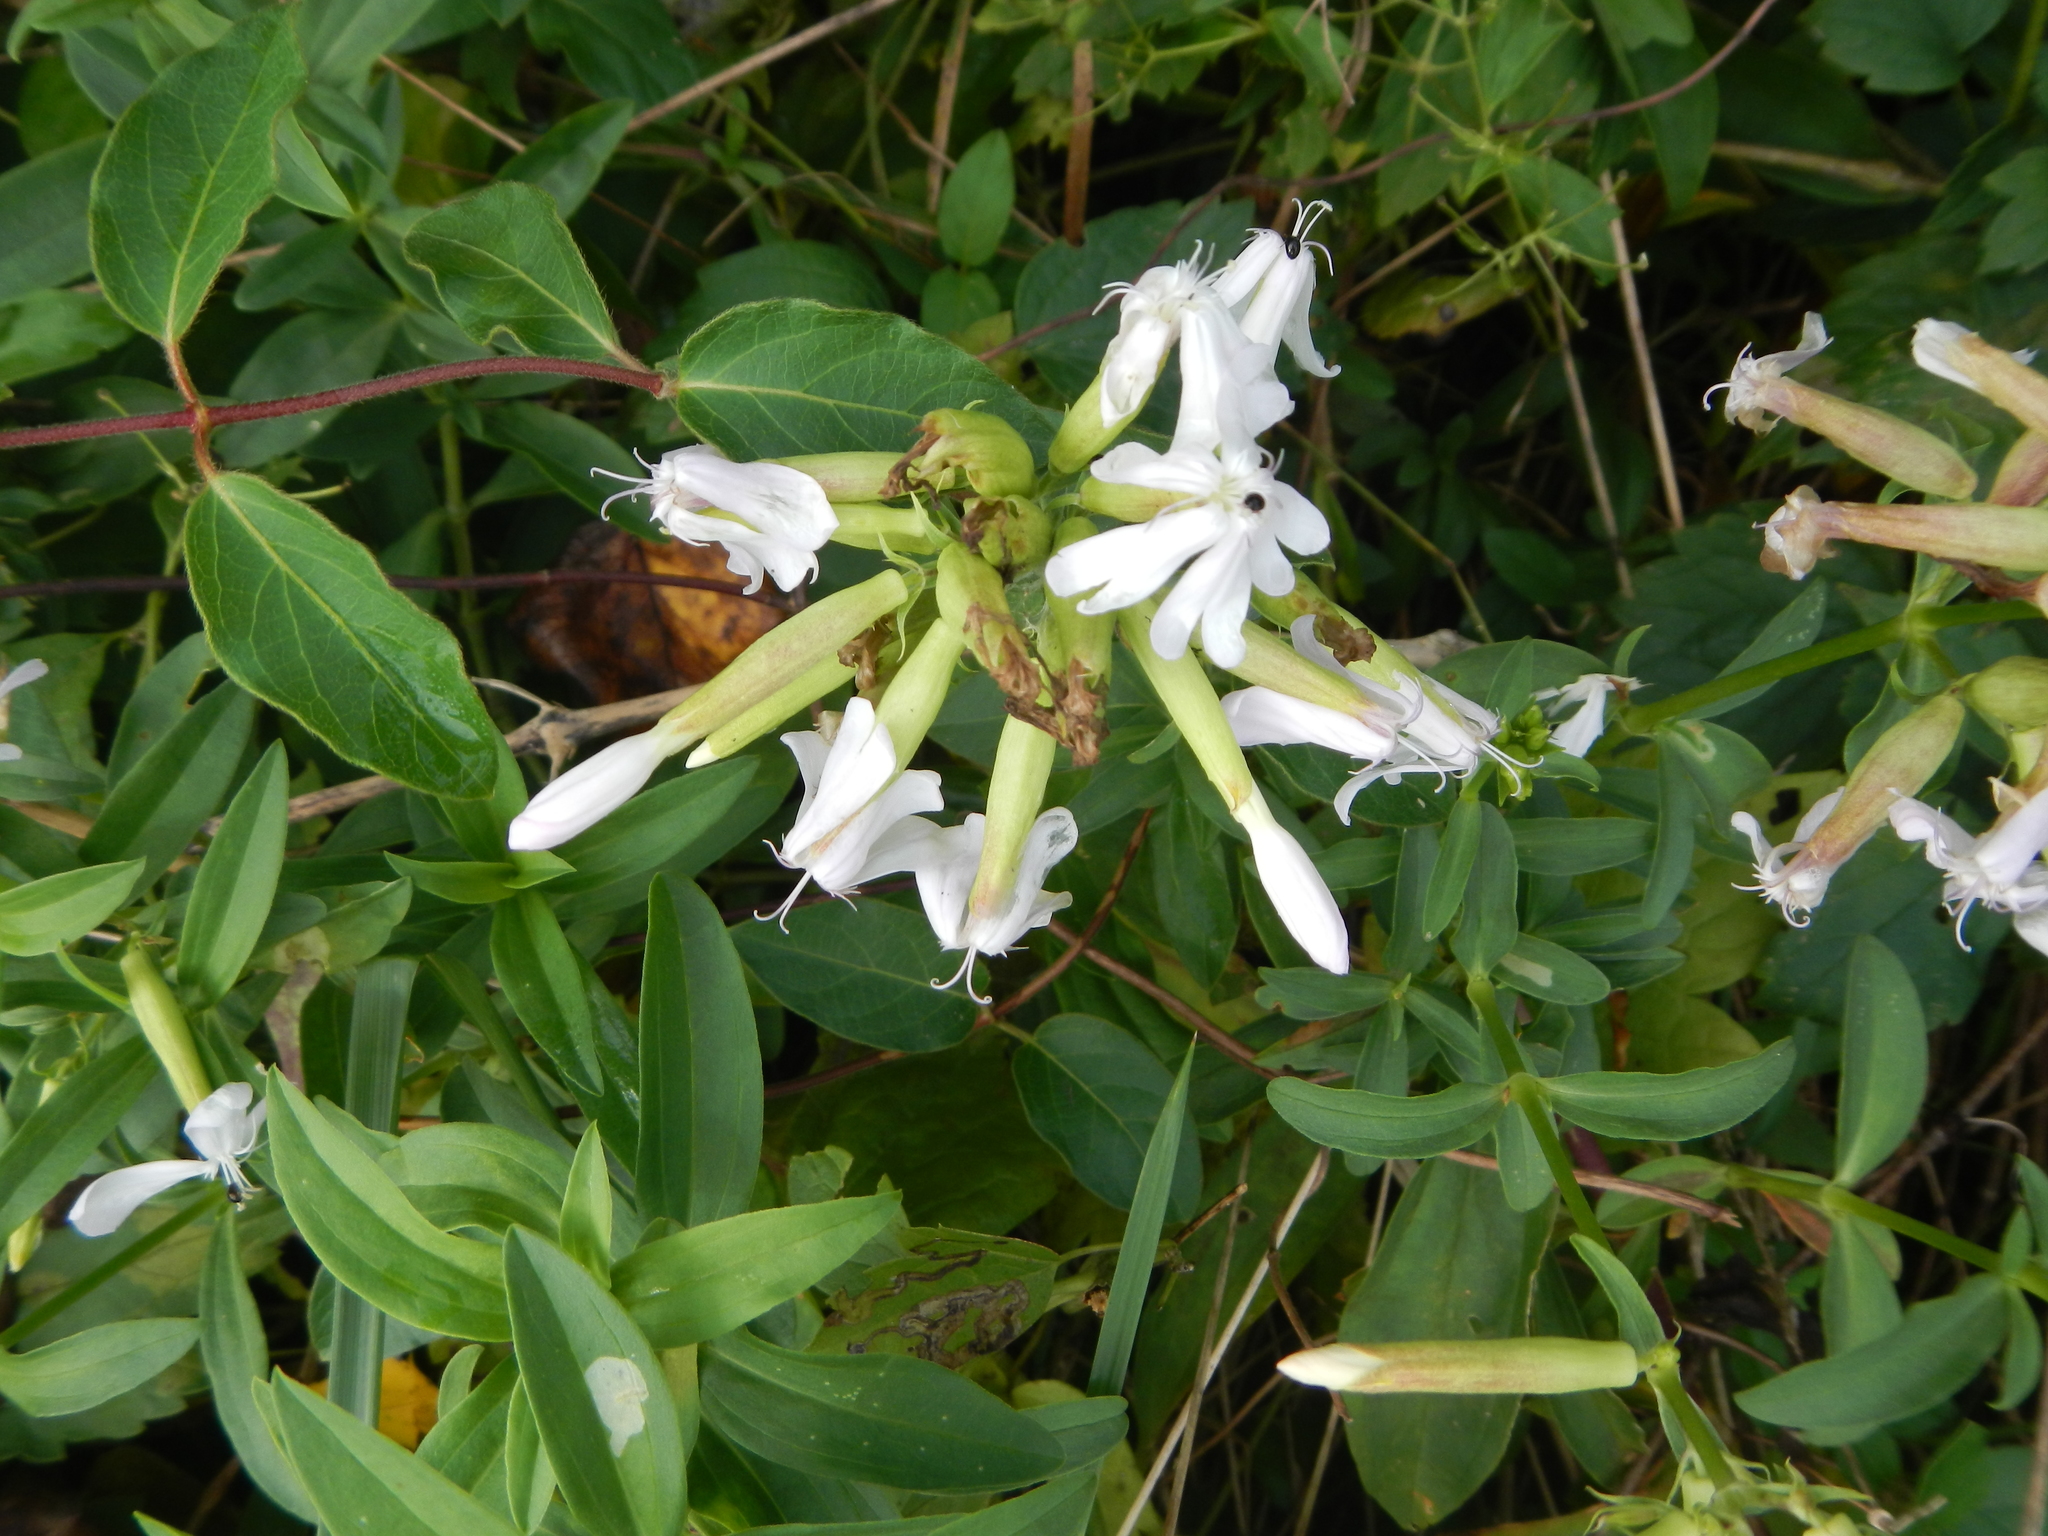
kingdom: Plantae
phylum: Tracheophyta
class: Magnoliopsida
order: Caryophyllales
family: Caryophyllaceae
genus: Saponaria
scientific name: Saponaria officinalis
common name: Soapwort
